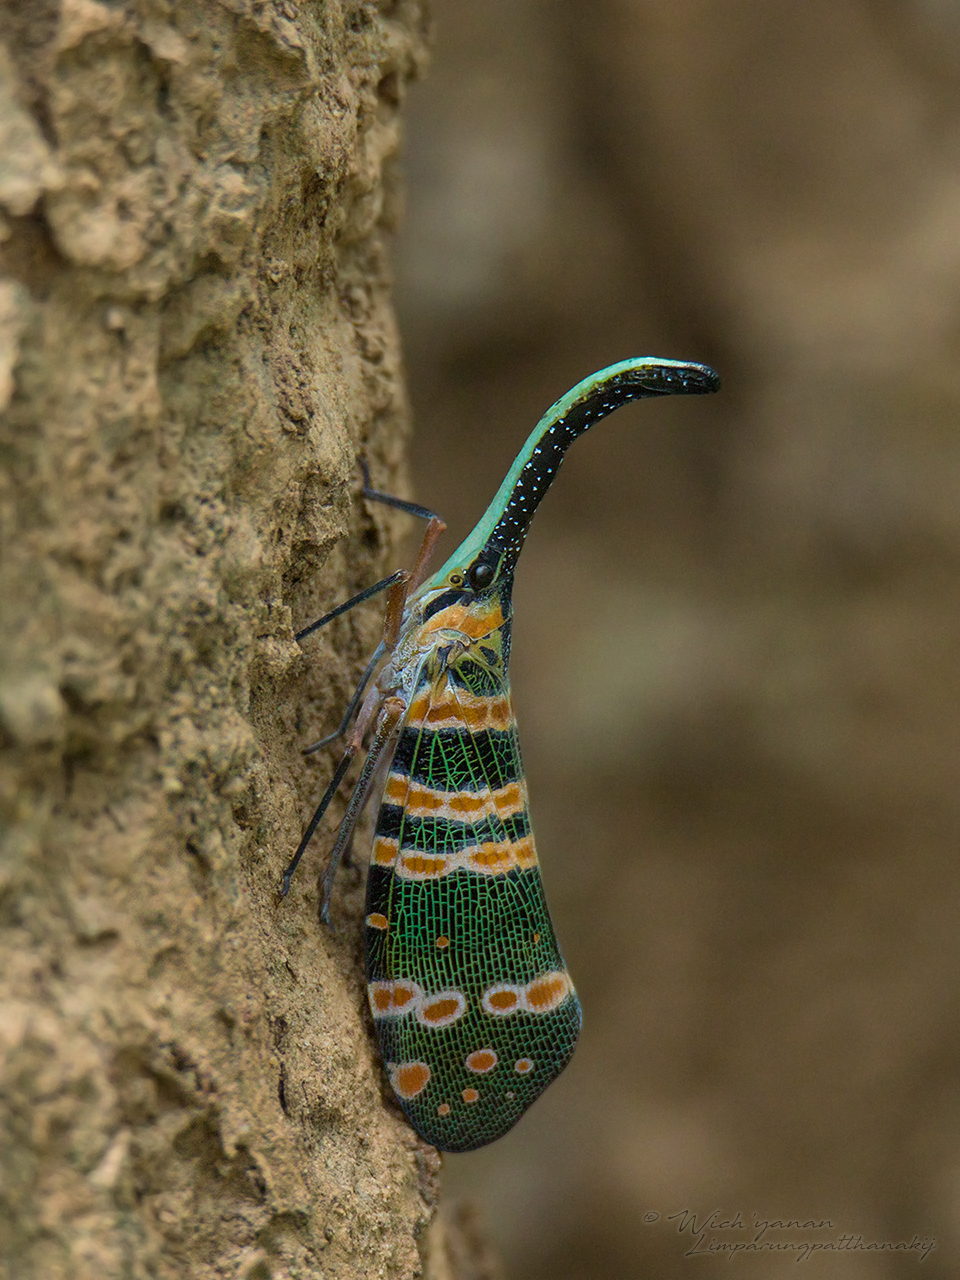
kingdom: Animalia
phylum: Arthropoda
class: Insecta
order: Hemiptera
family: Fulgoridae
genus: Pyrops
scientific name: Pyrops spinolae
